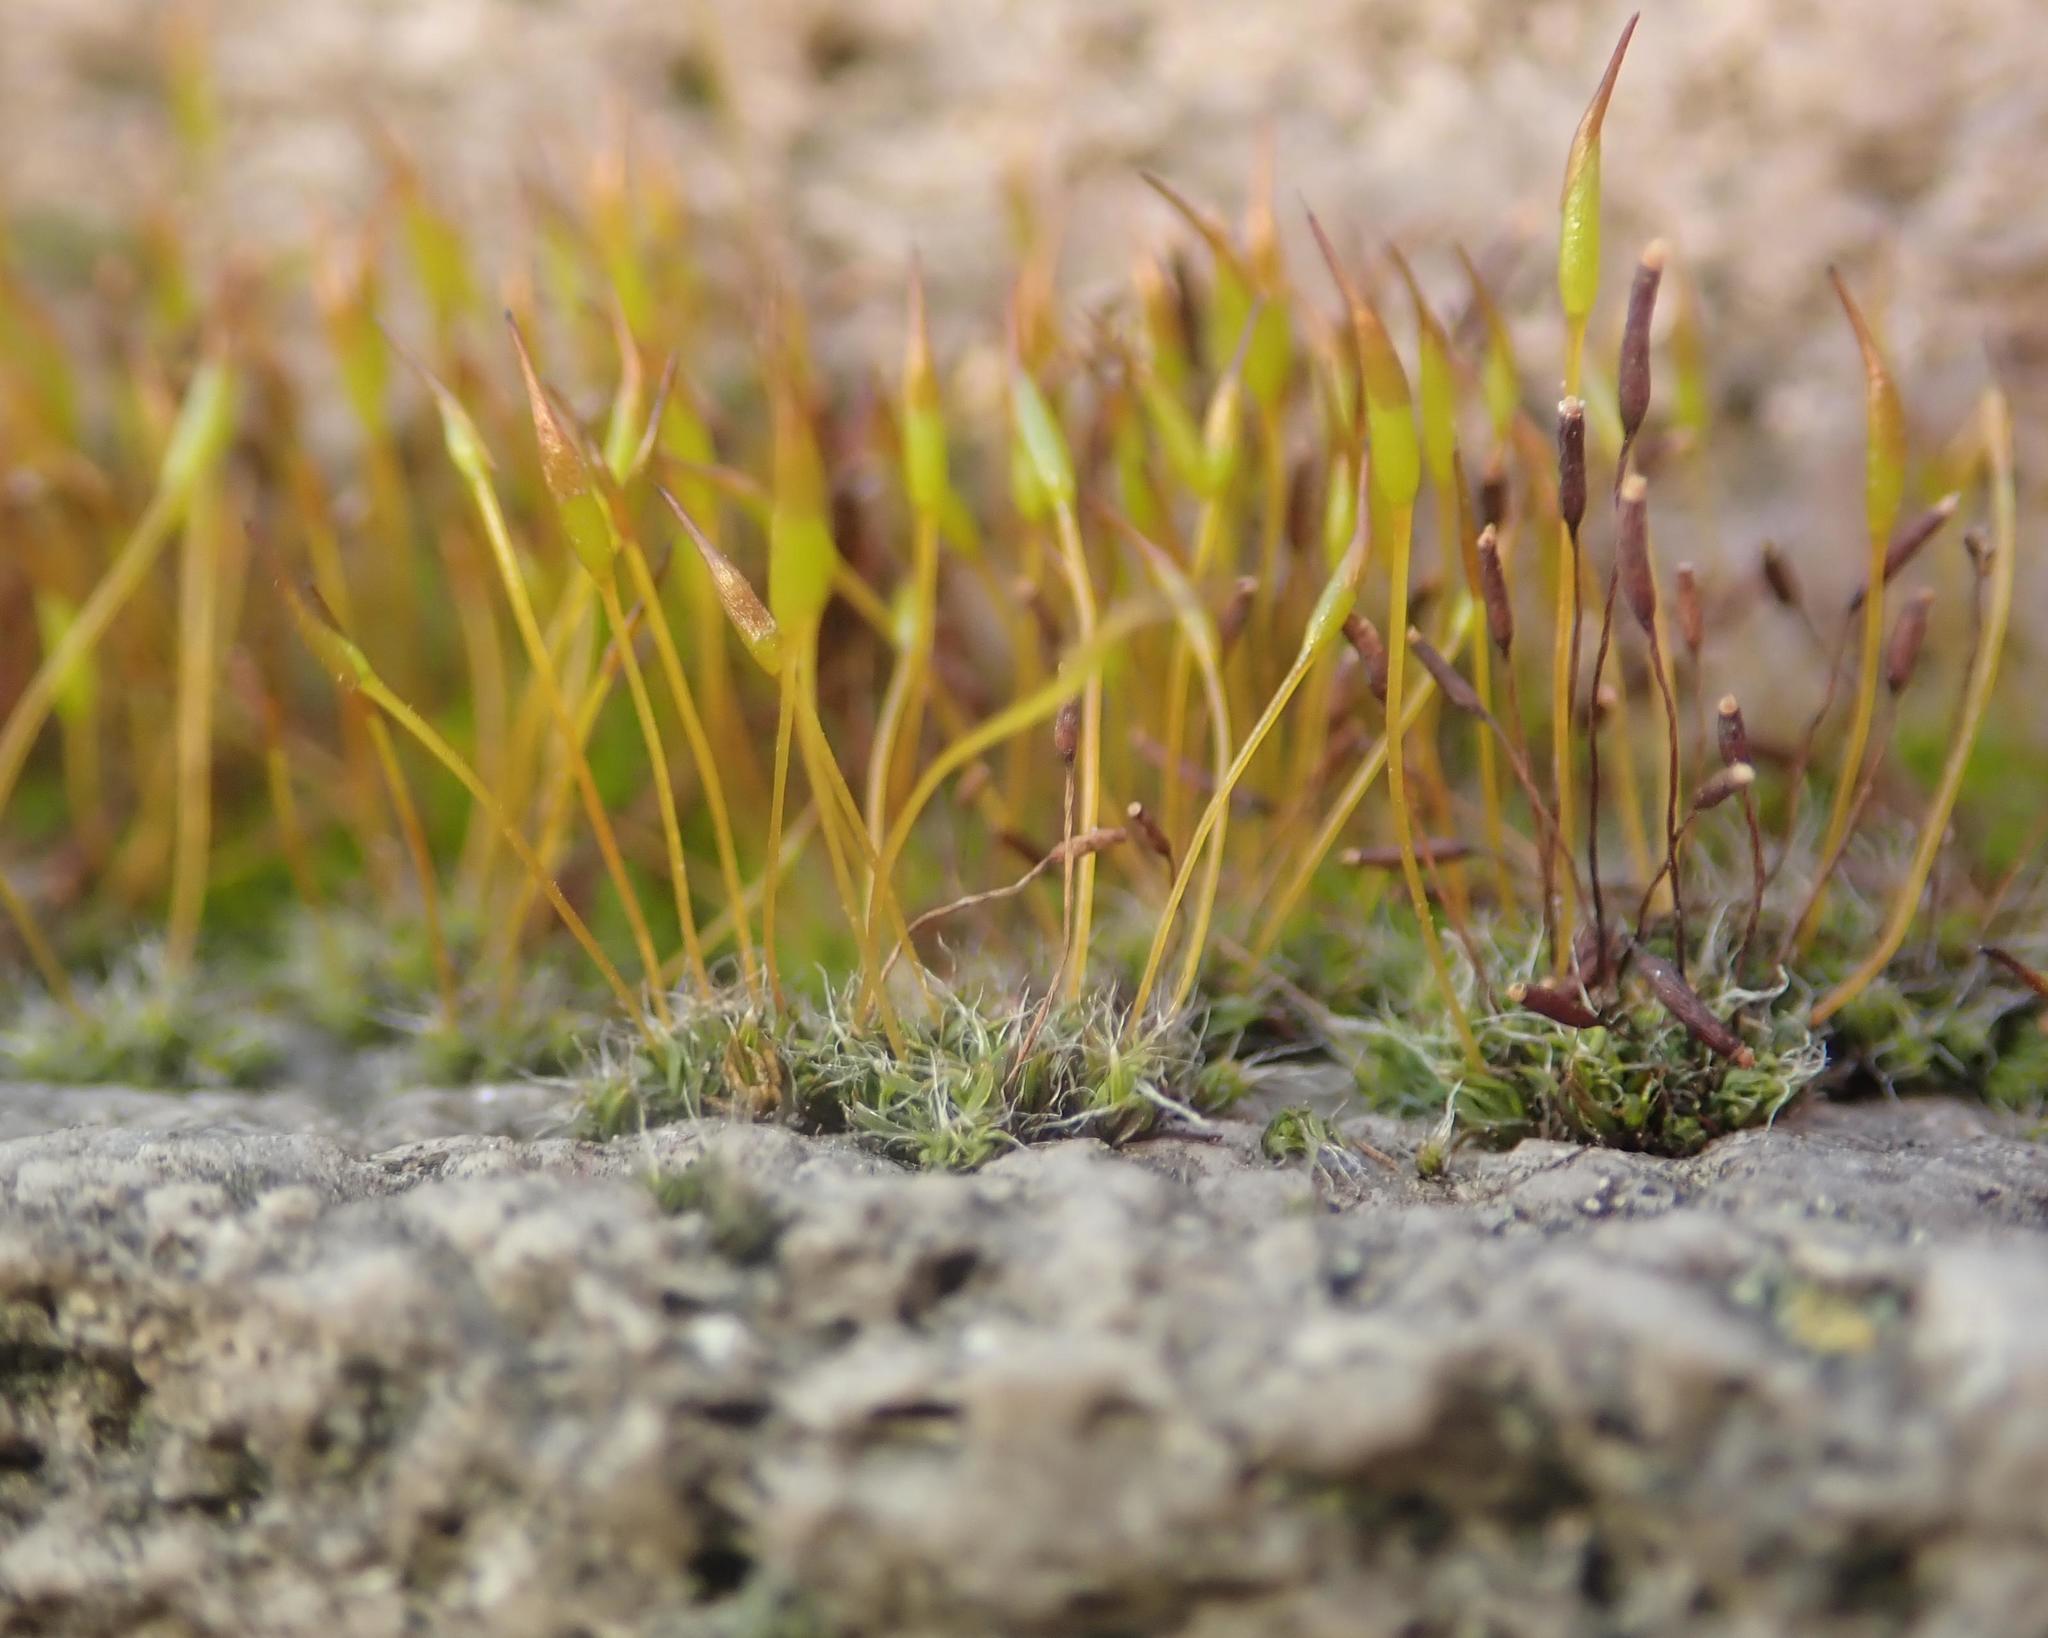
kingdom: Plantae
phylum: Bryophyta
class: Bryopsida
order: Pottiales
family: Pottiaceae
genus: Tortula
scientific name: Tortula muralis
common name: Wall screw-moss
